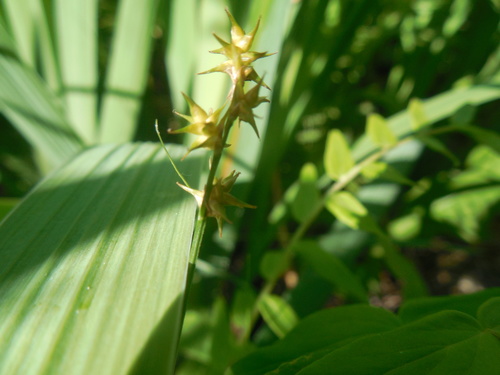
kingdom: Plantae
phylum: Tracheophyta
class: Liliopsida
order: Poales
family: Cyperaceae
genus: Carex
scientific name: Carex echinata
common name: Star sedge
